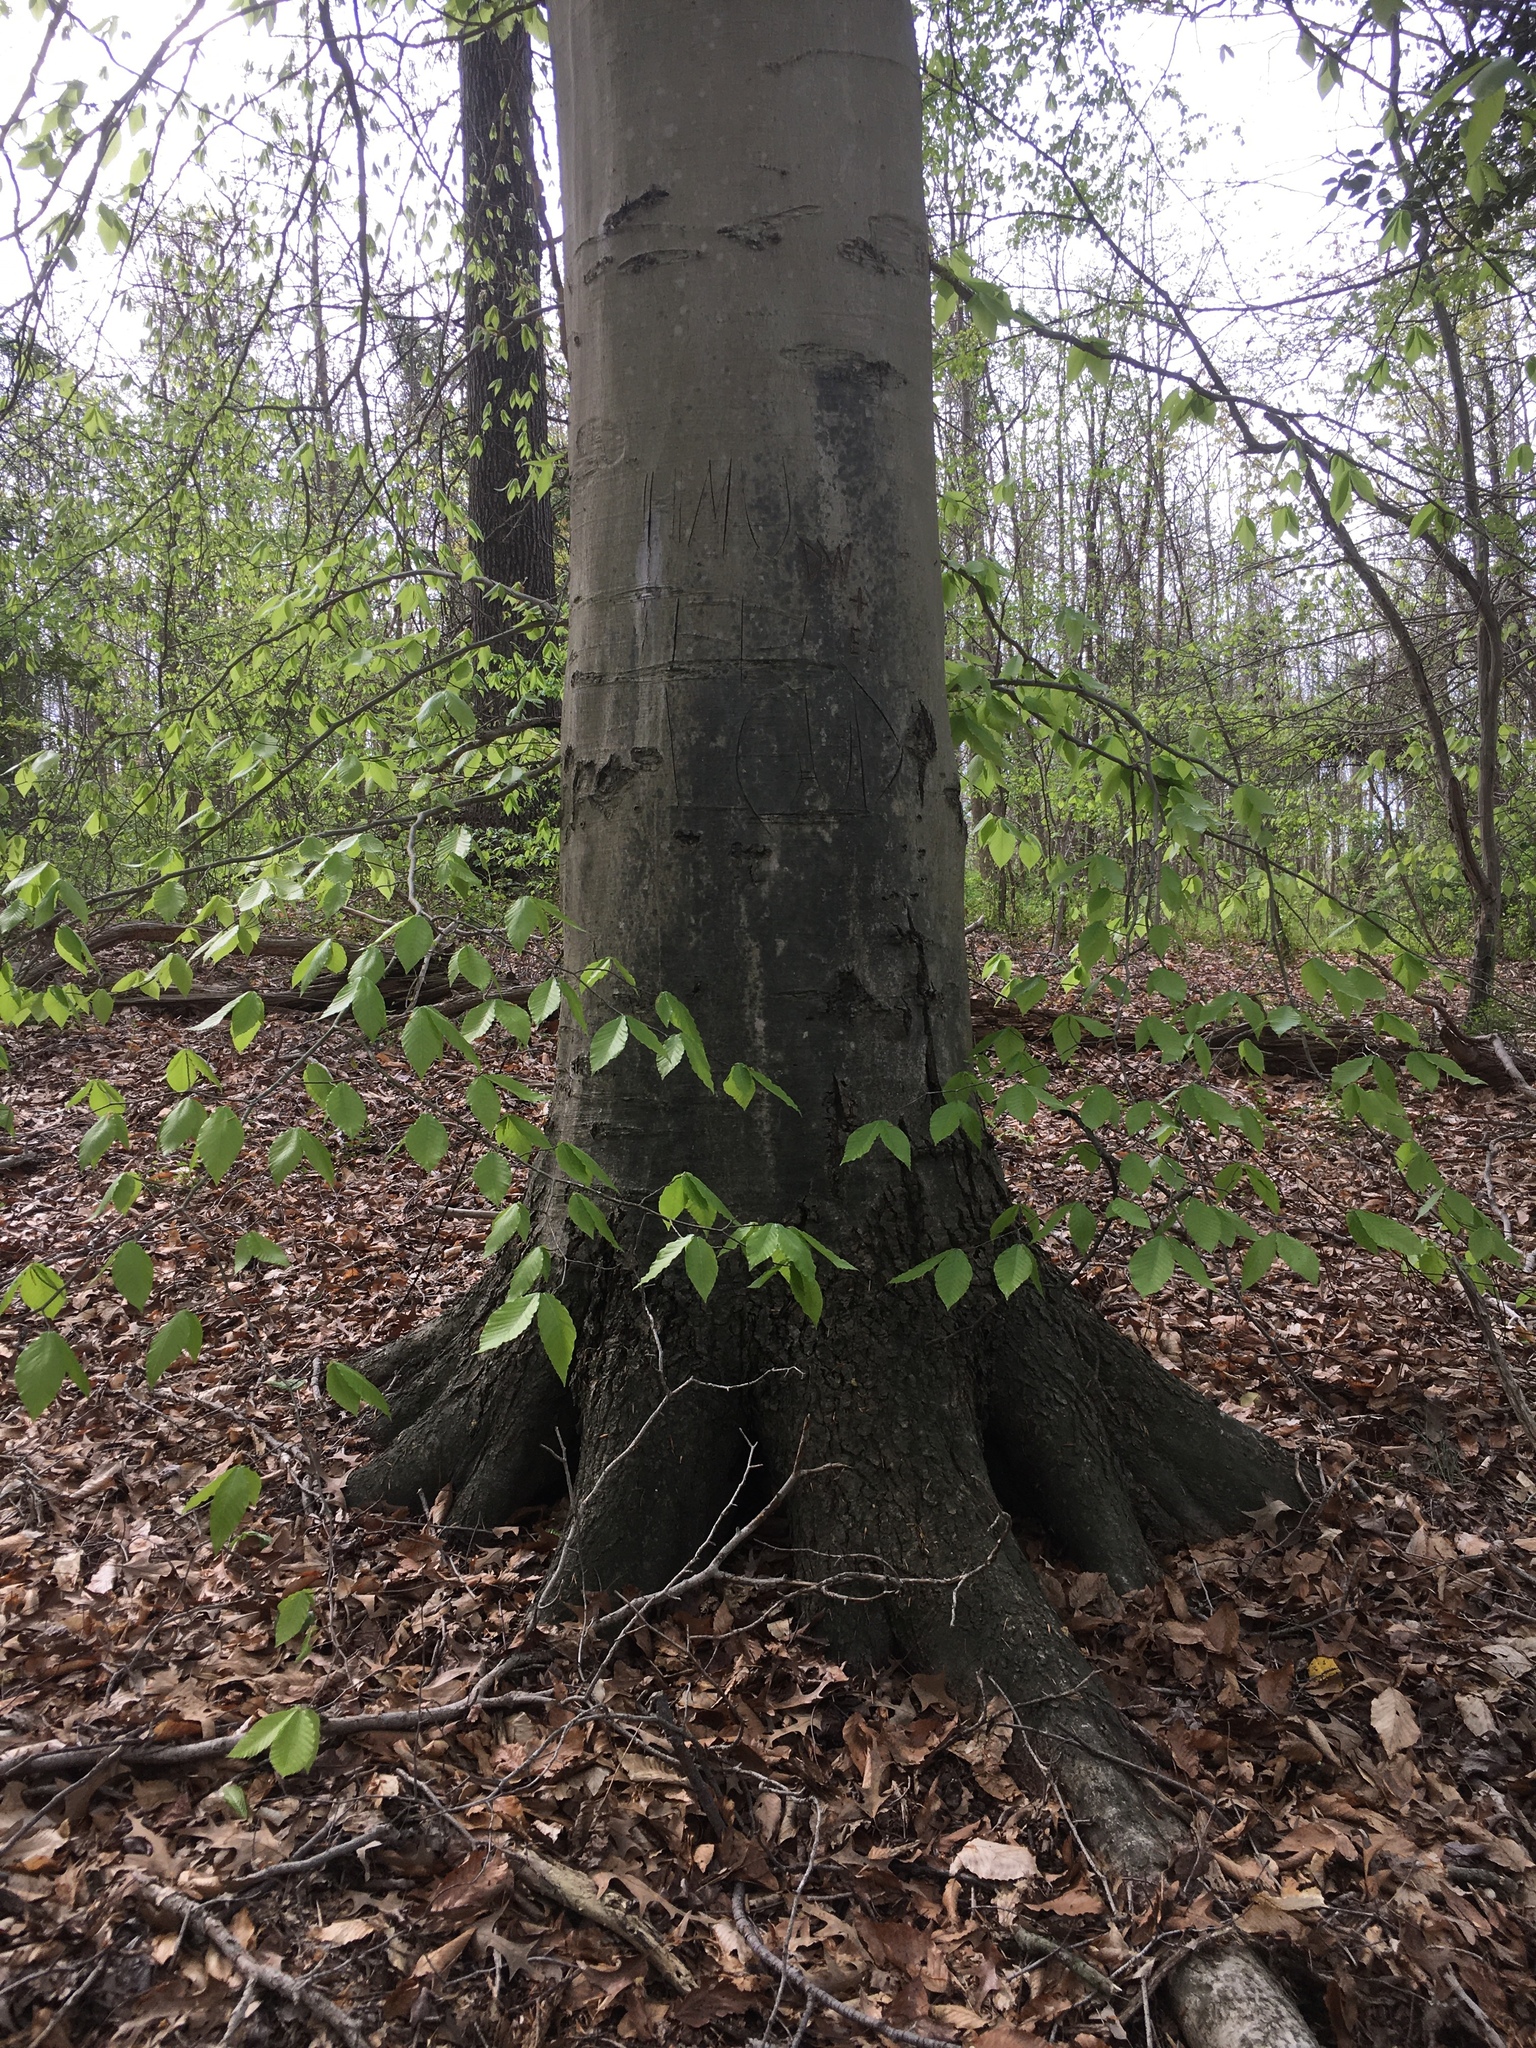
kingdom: Plantae
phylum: Tracheophyta
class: Magnoliopsida
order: Fagales
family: Fagaceae
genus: Fagus
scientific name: Fagus grandifolia
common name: American beech
